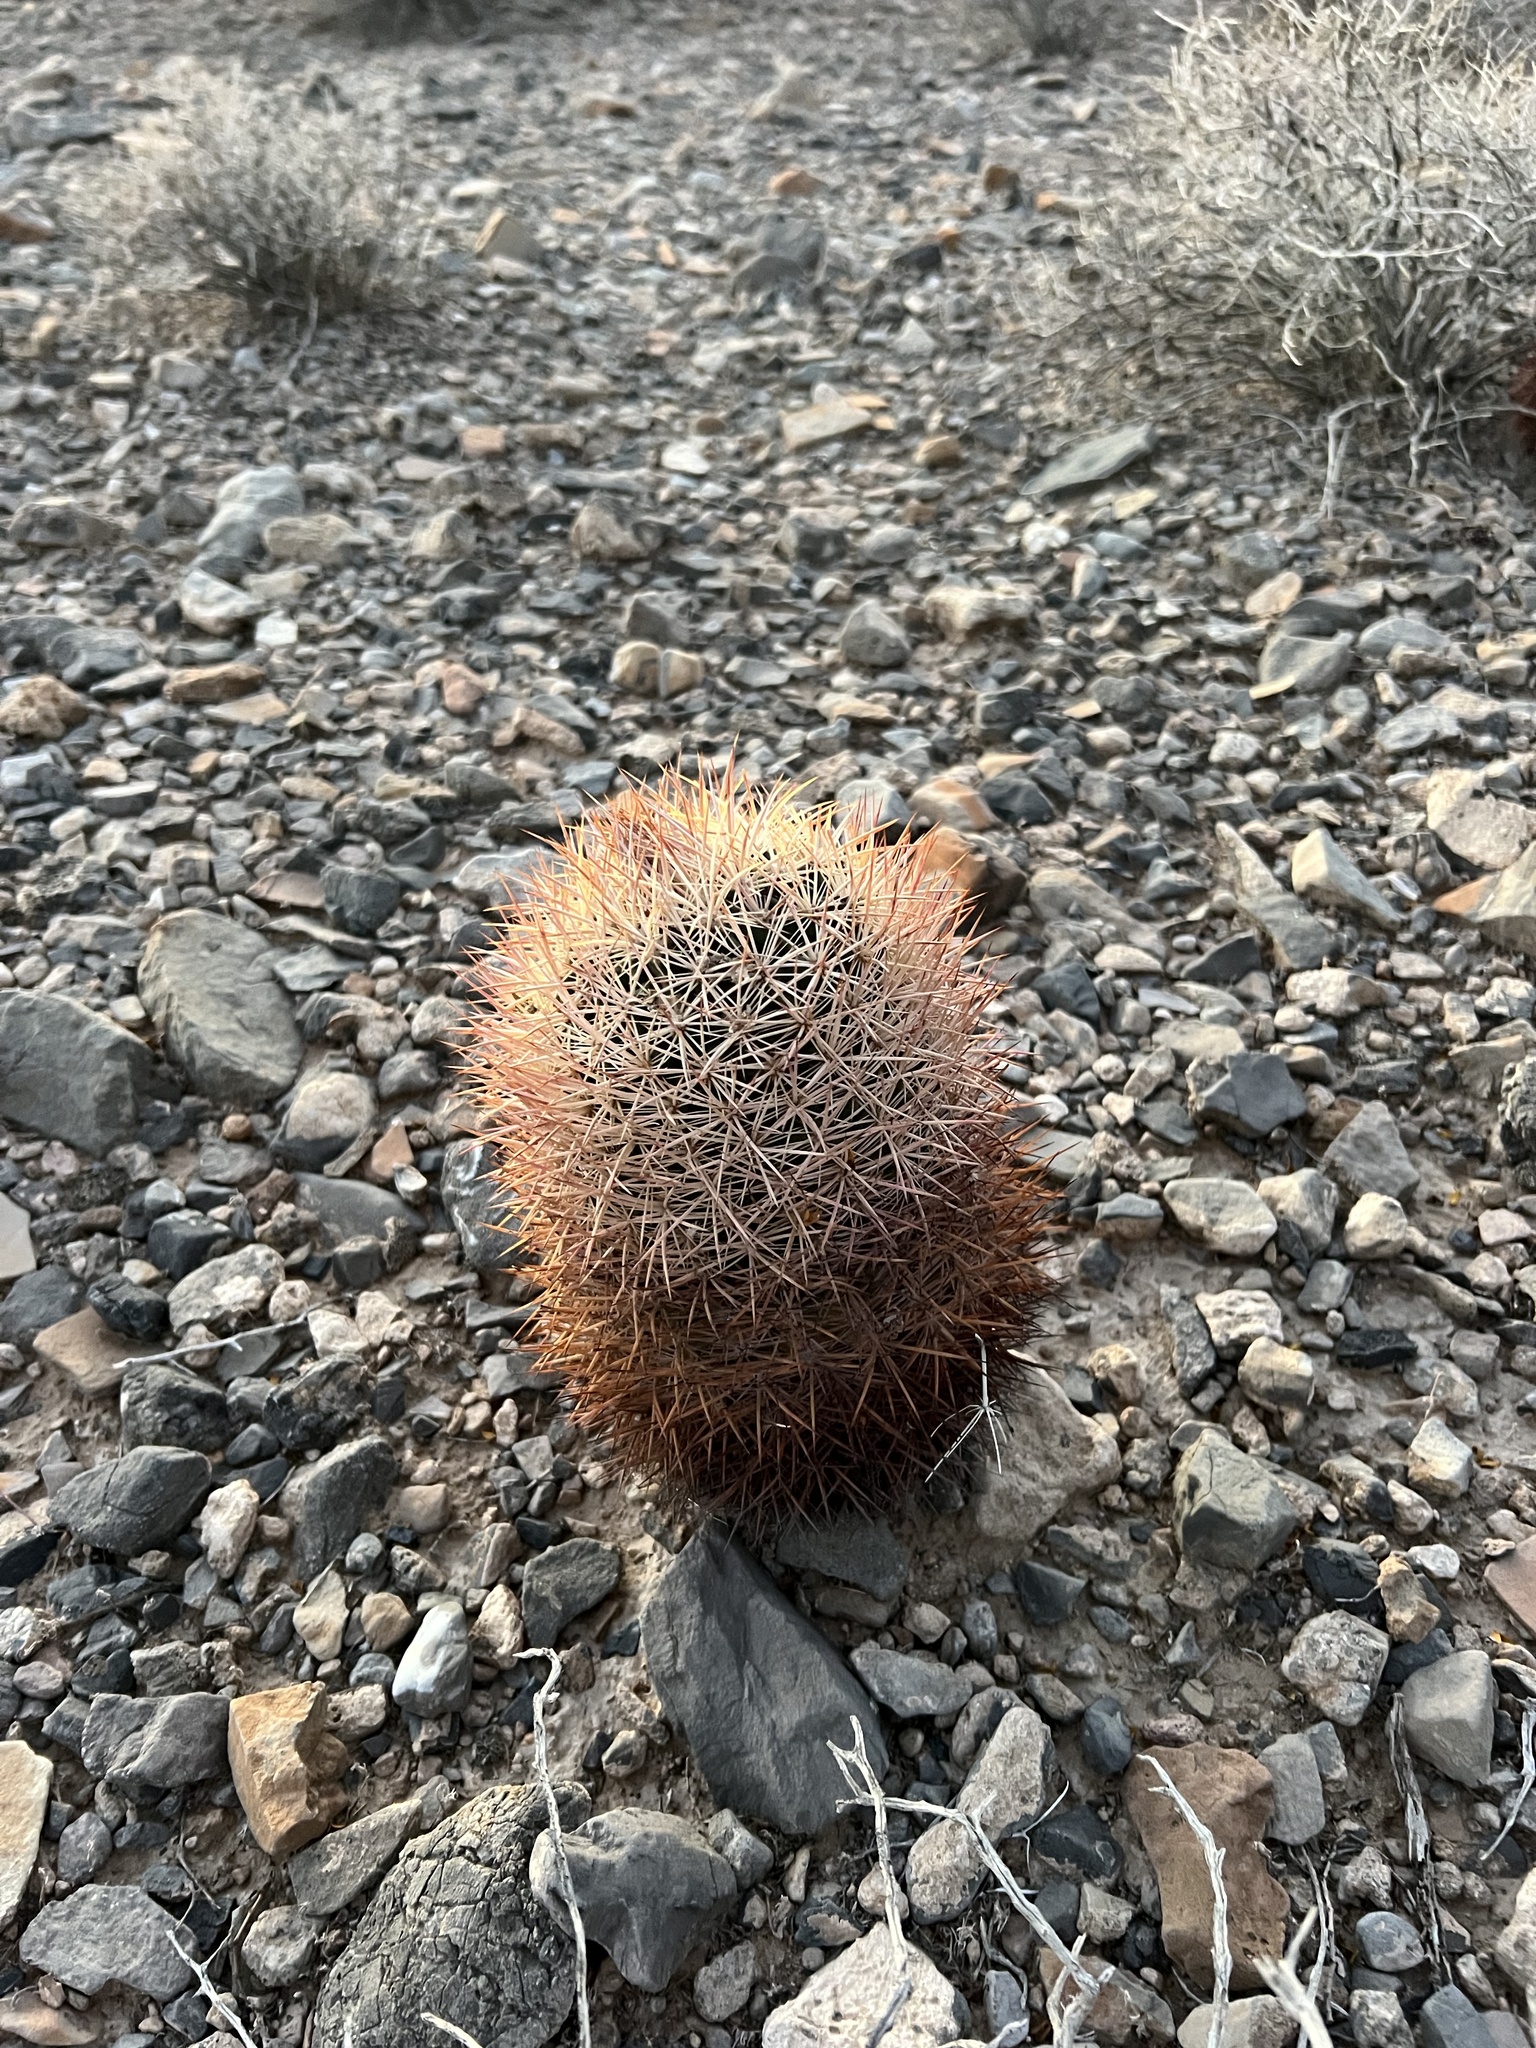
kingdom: Plantae
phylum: Tracheophyta
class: Magnoliopsida
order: Caryophyllales
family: Cactaceae
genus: Sclerocactus
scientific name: Sclerocactus johnsonii
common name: Eight-spine fishhook cactus
